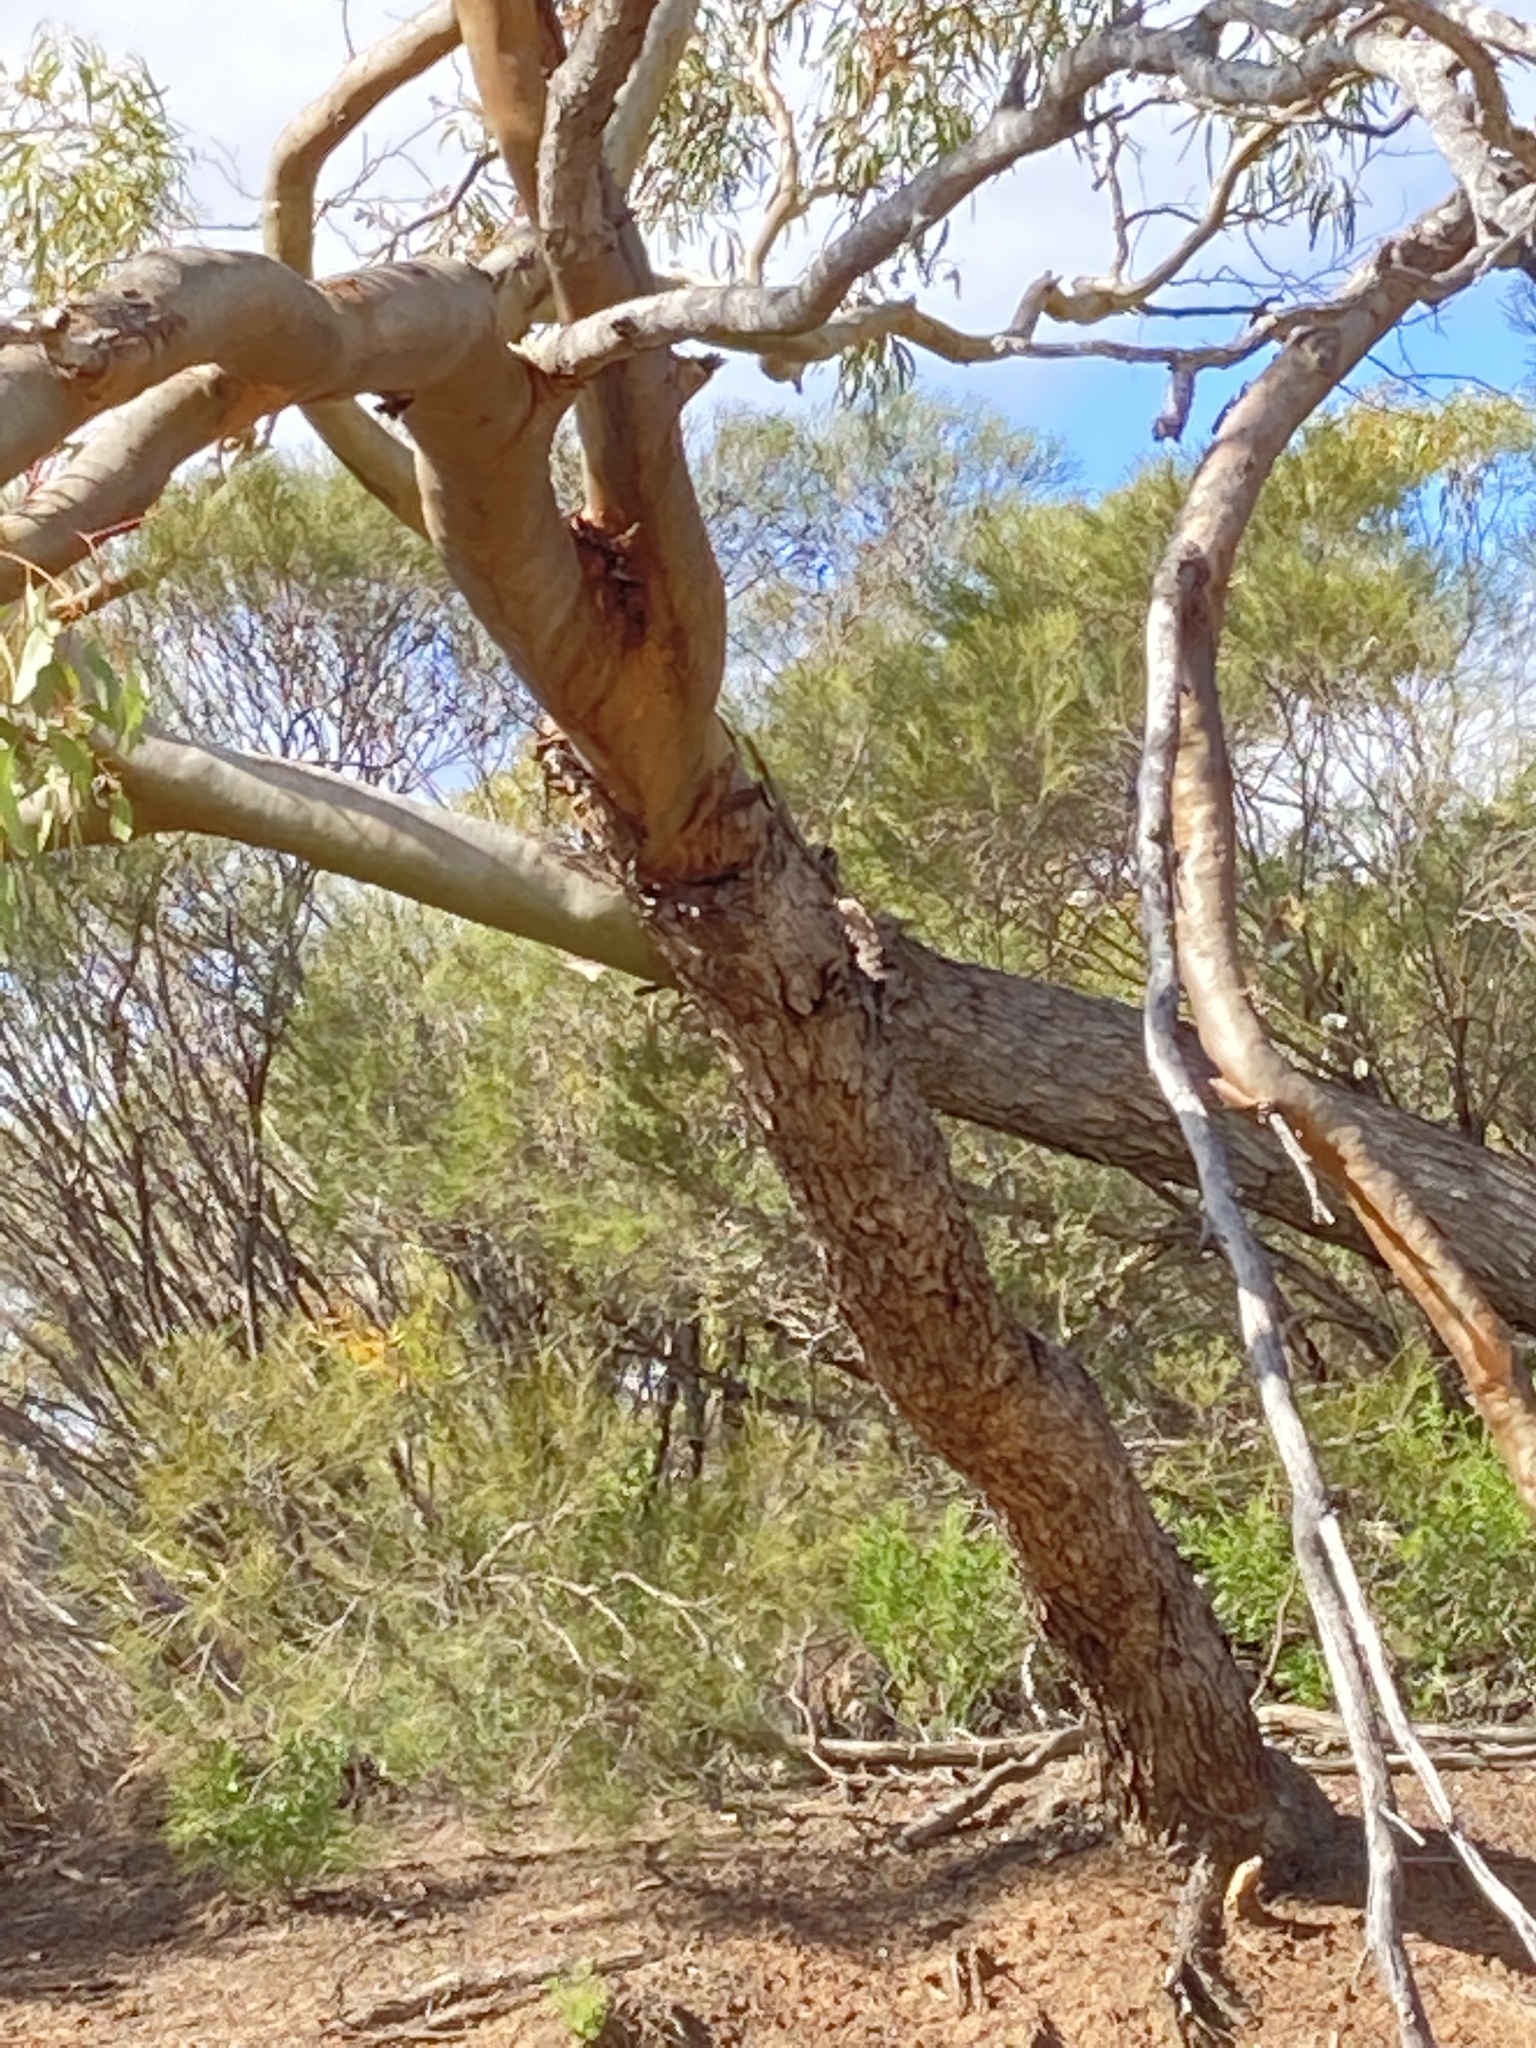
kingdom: Plantae
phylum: Tracheophyta
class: Magnoliopsida
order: Myrtales
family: Myrtaceae
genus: Eucalyptus
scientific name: Eucalyptus loxophleba
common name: York gum
